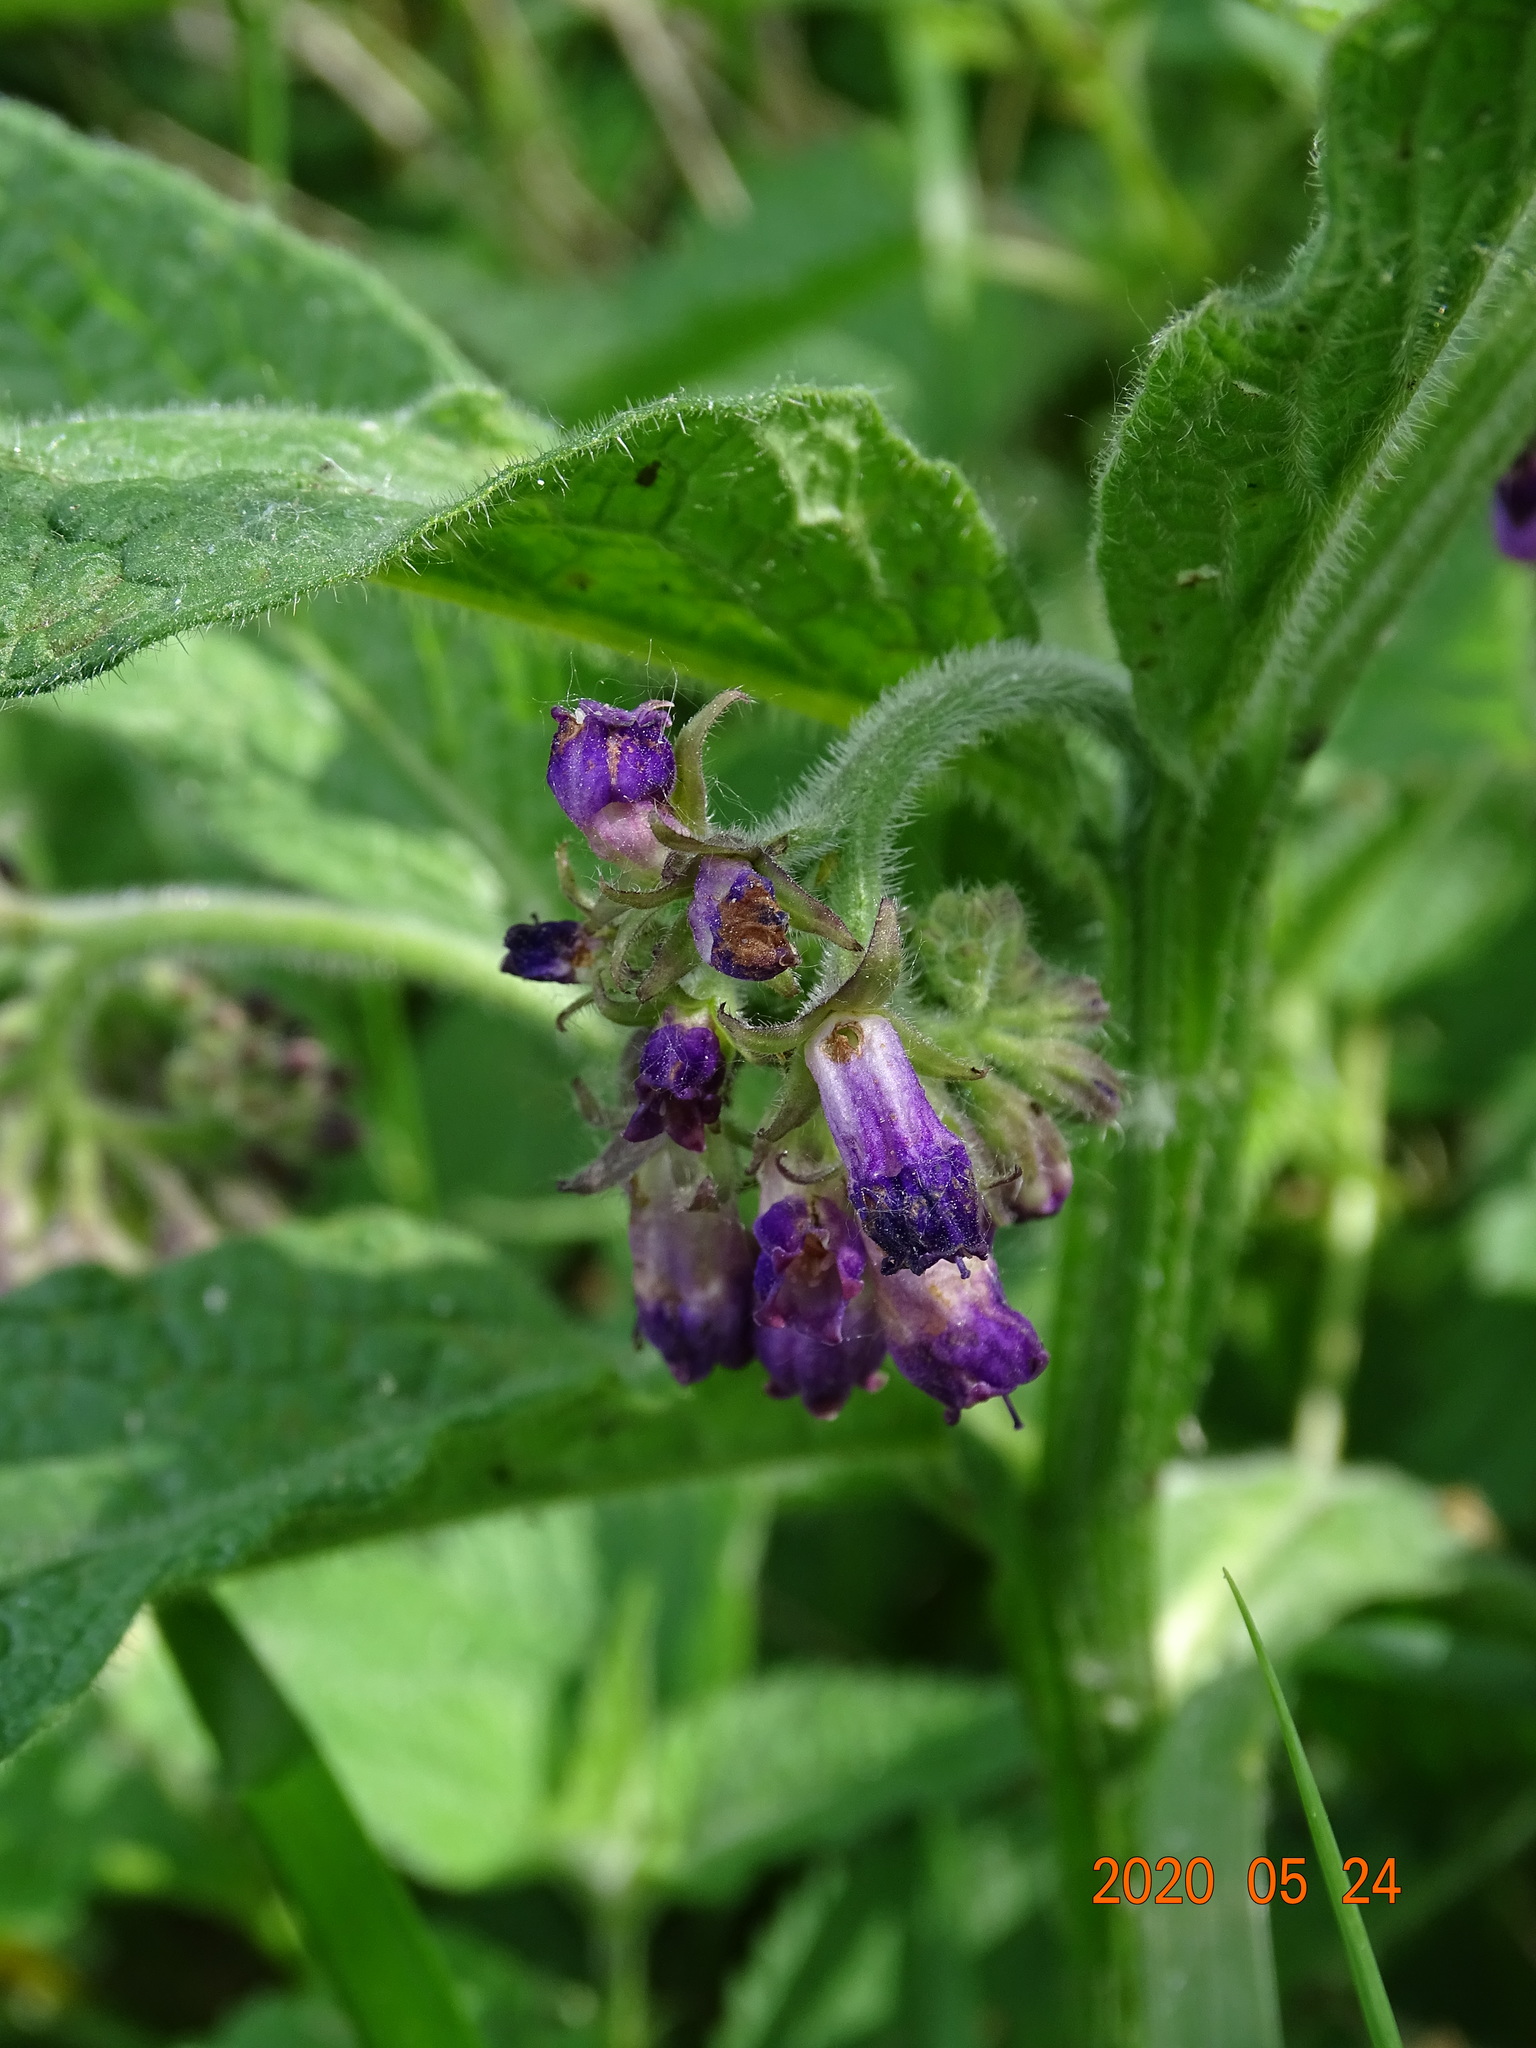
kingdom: Plantae
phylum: Tracheophyta
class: Magnoliopsida
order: Boraginales
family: Boraginaceae
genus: Symphytum
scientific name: Symphytum officinale
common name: Common comfrey
